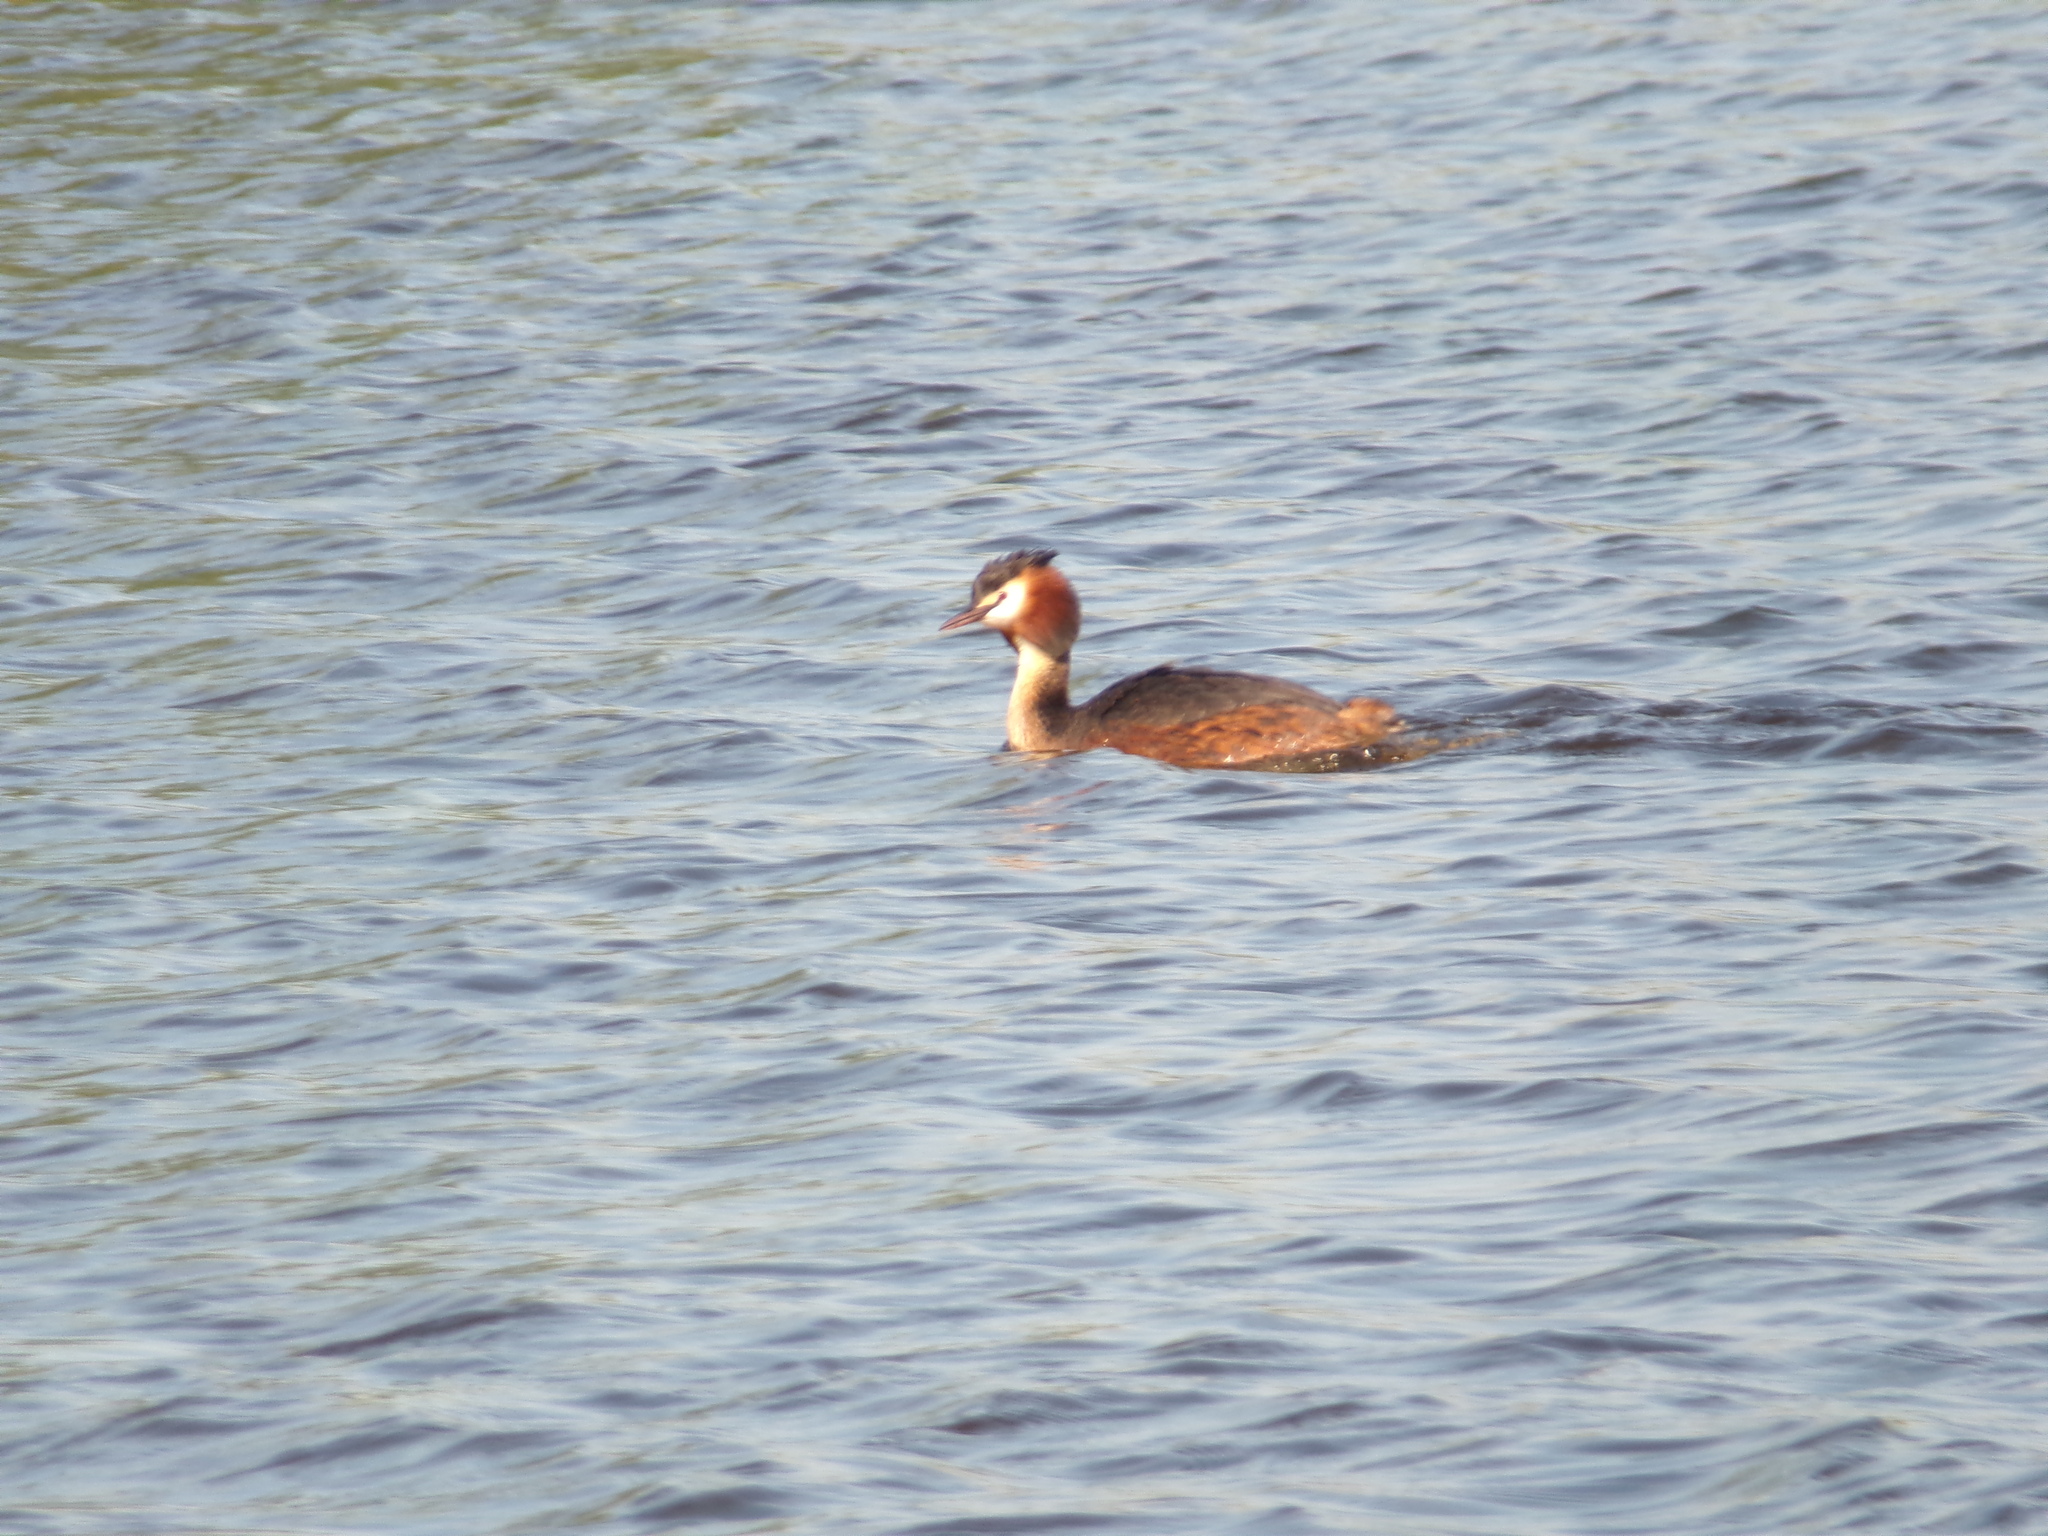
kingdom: Animalia
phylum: Chordata
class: Aves
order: Podicipediformes
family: Podicipedidae
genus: Podiceps
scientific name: Podiceps cristatus
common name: Great crested grebe
